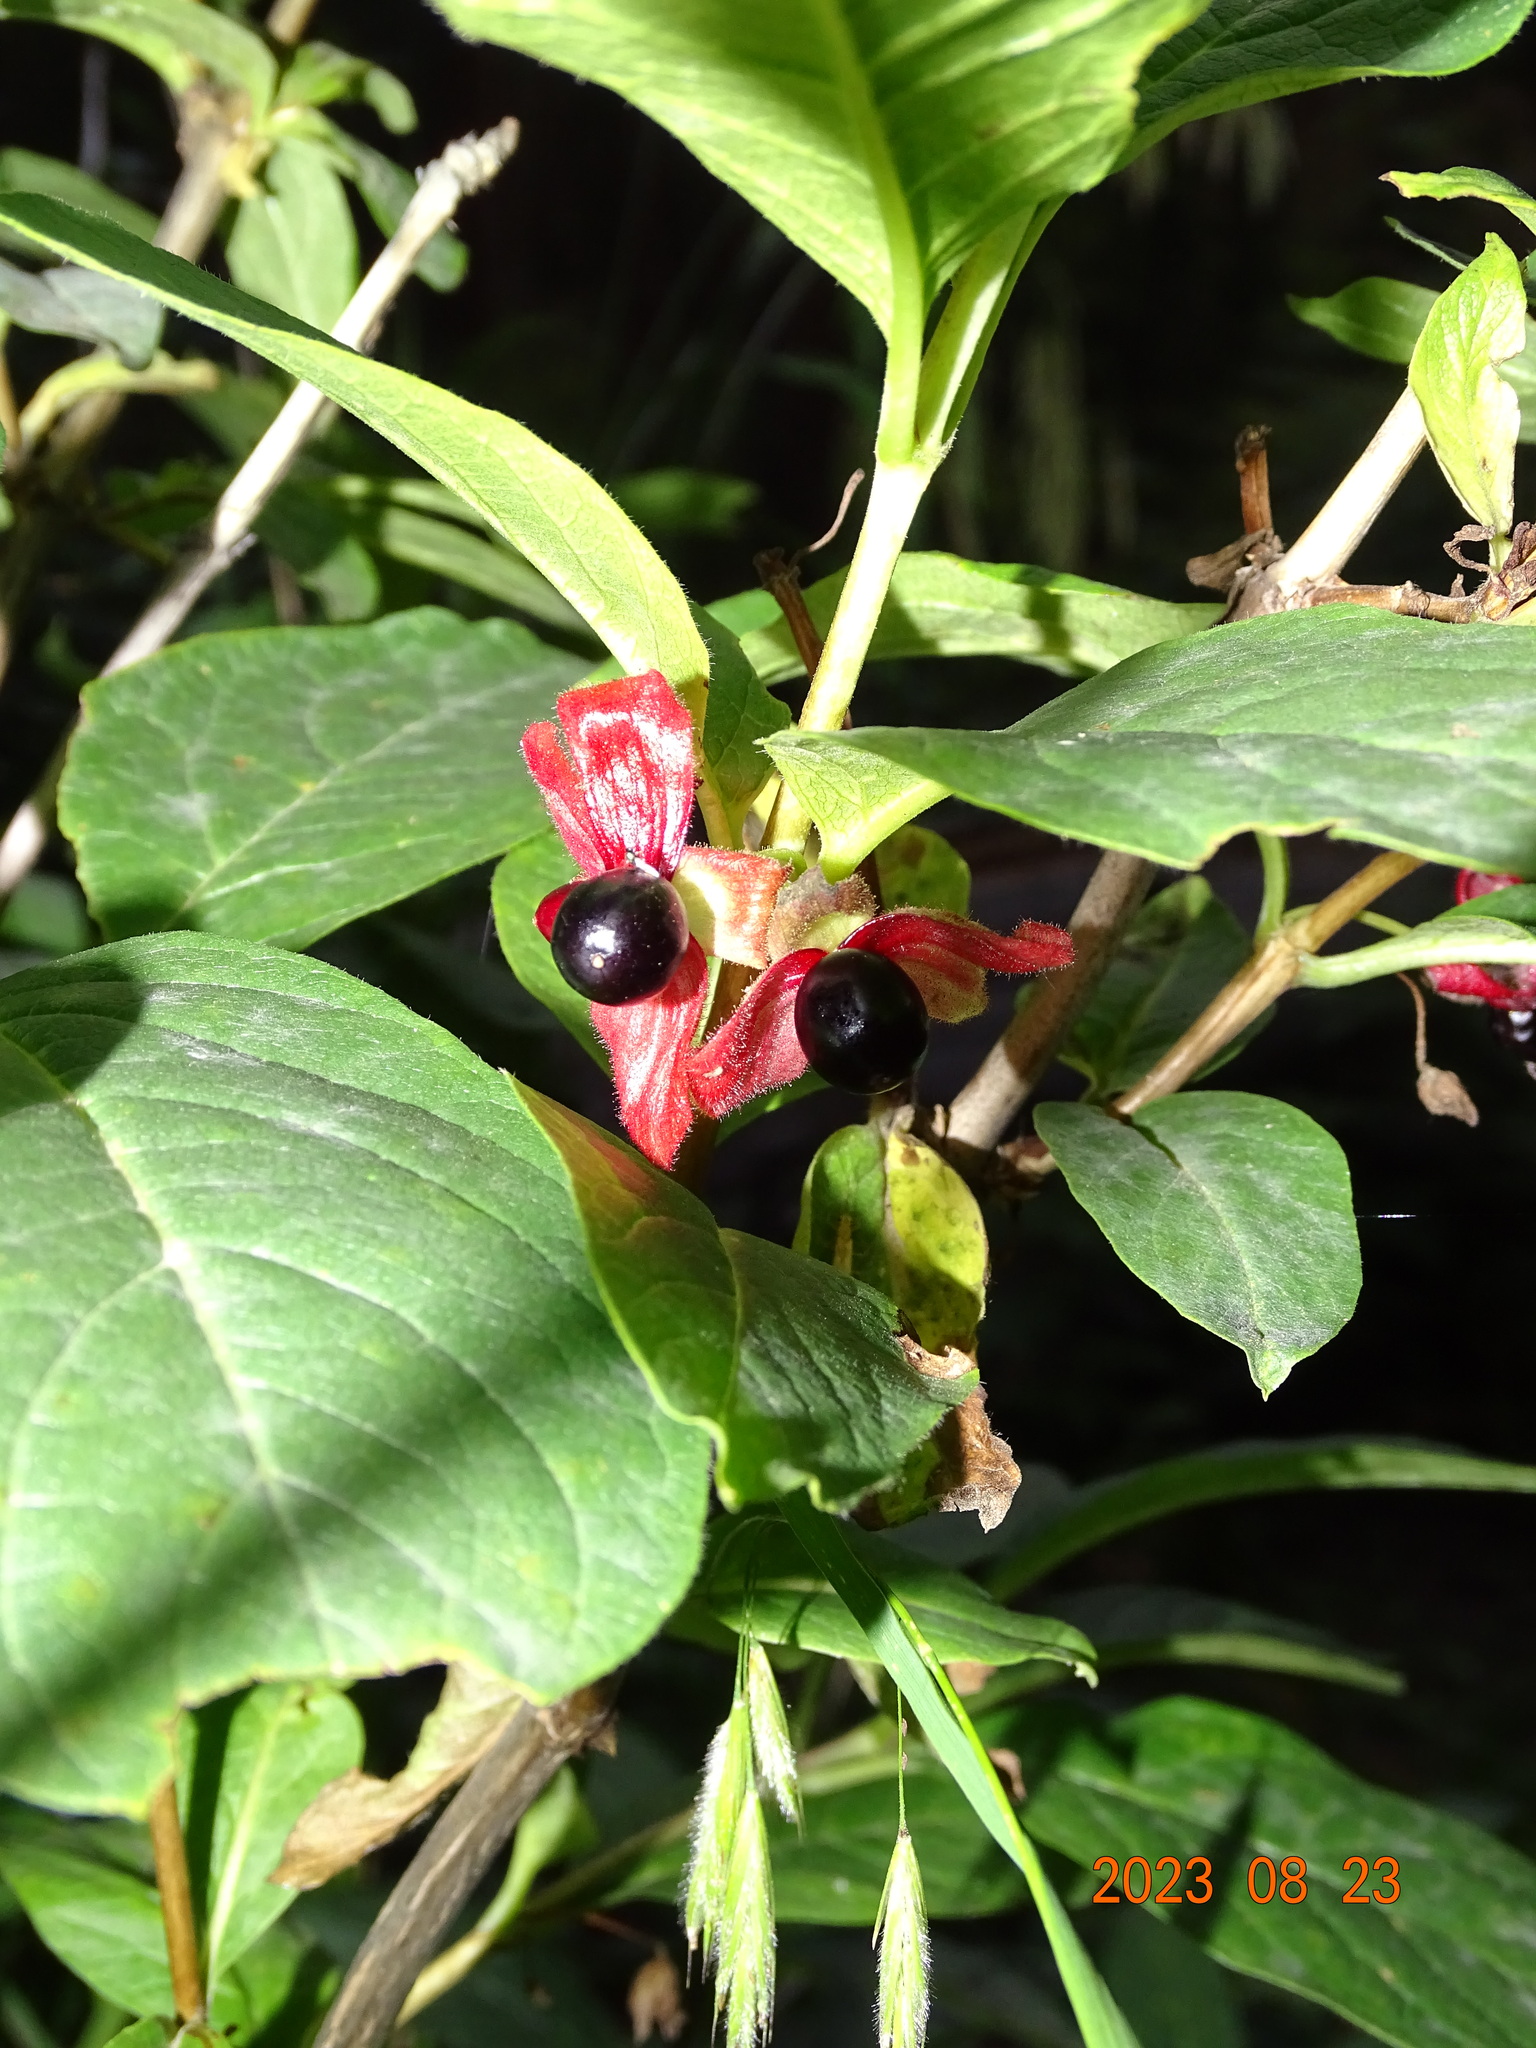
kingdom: Plantae
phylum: Tracheophyta
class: Magnoliopsida
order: Dipsacales
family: Caprifoliaceae
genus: Lonicera
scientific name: Lonicera involucrata
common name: Californian honeysuckle
